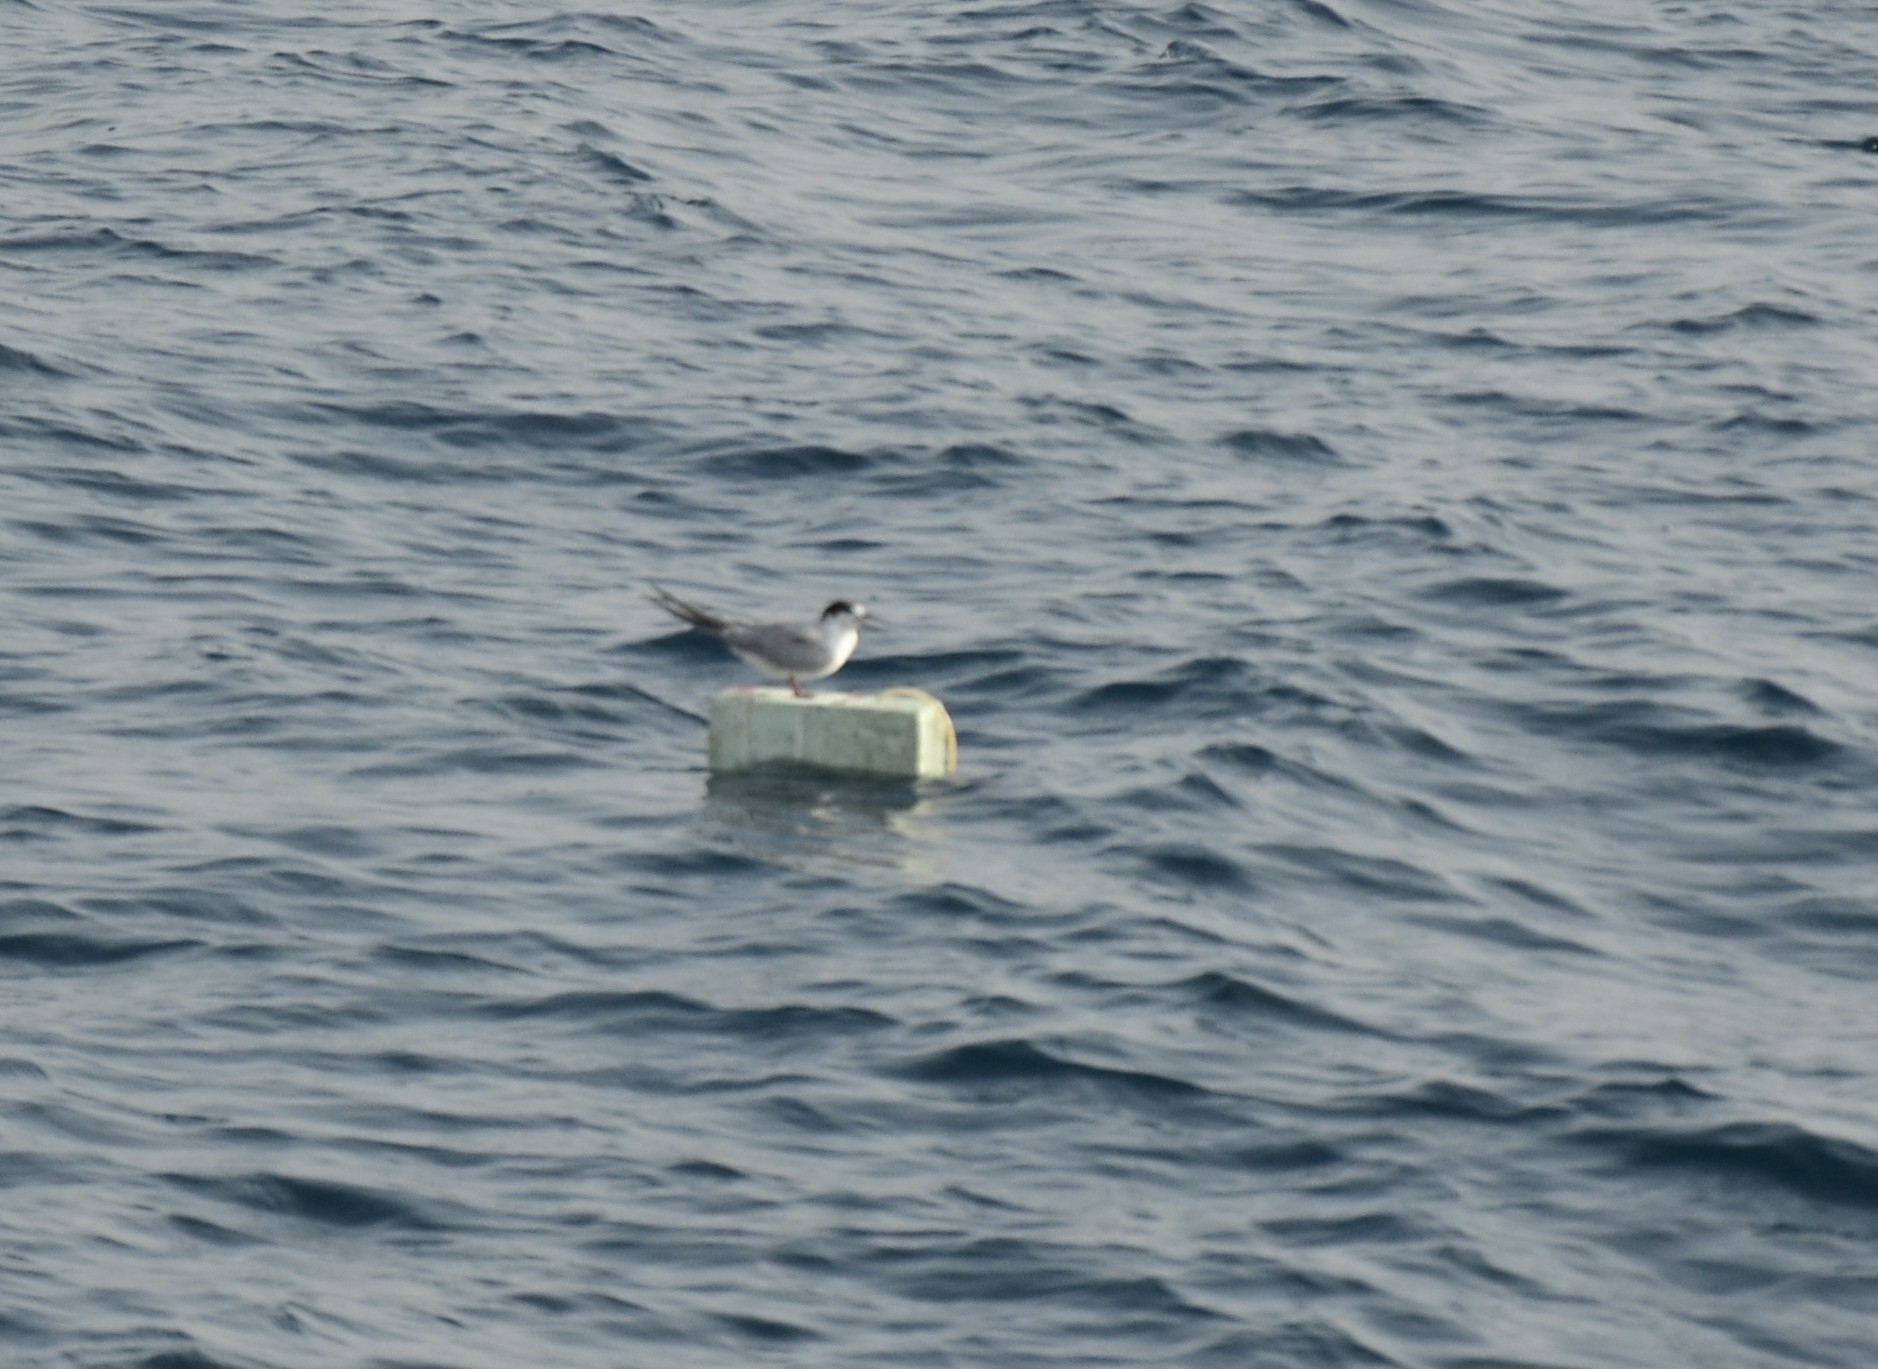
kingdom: Animalia
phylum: Chordata
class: Aves
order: Charadriiformes
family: Laridae
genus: Sterna
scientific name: Sterna hirundo
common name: Common tern
